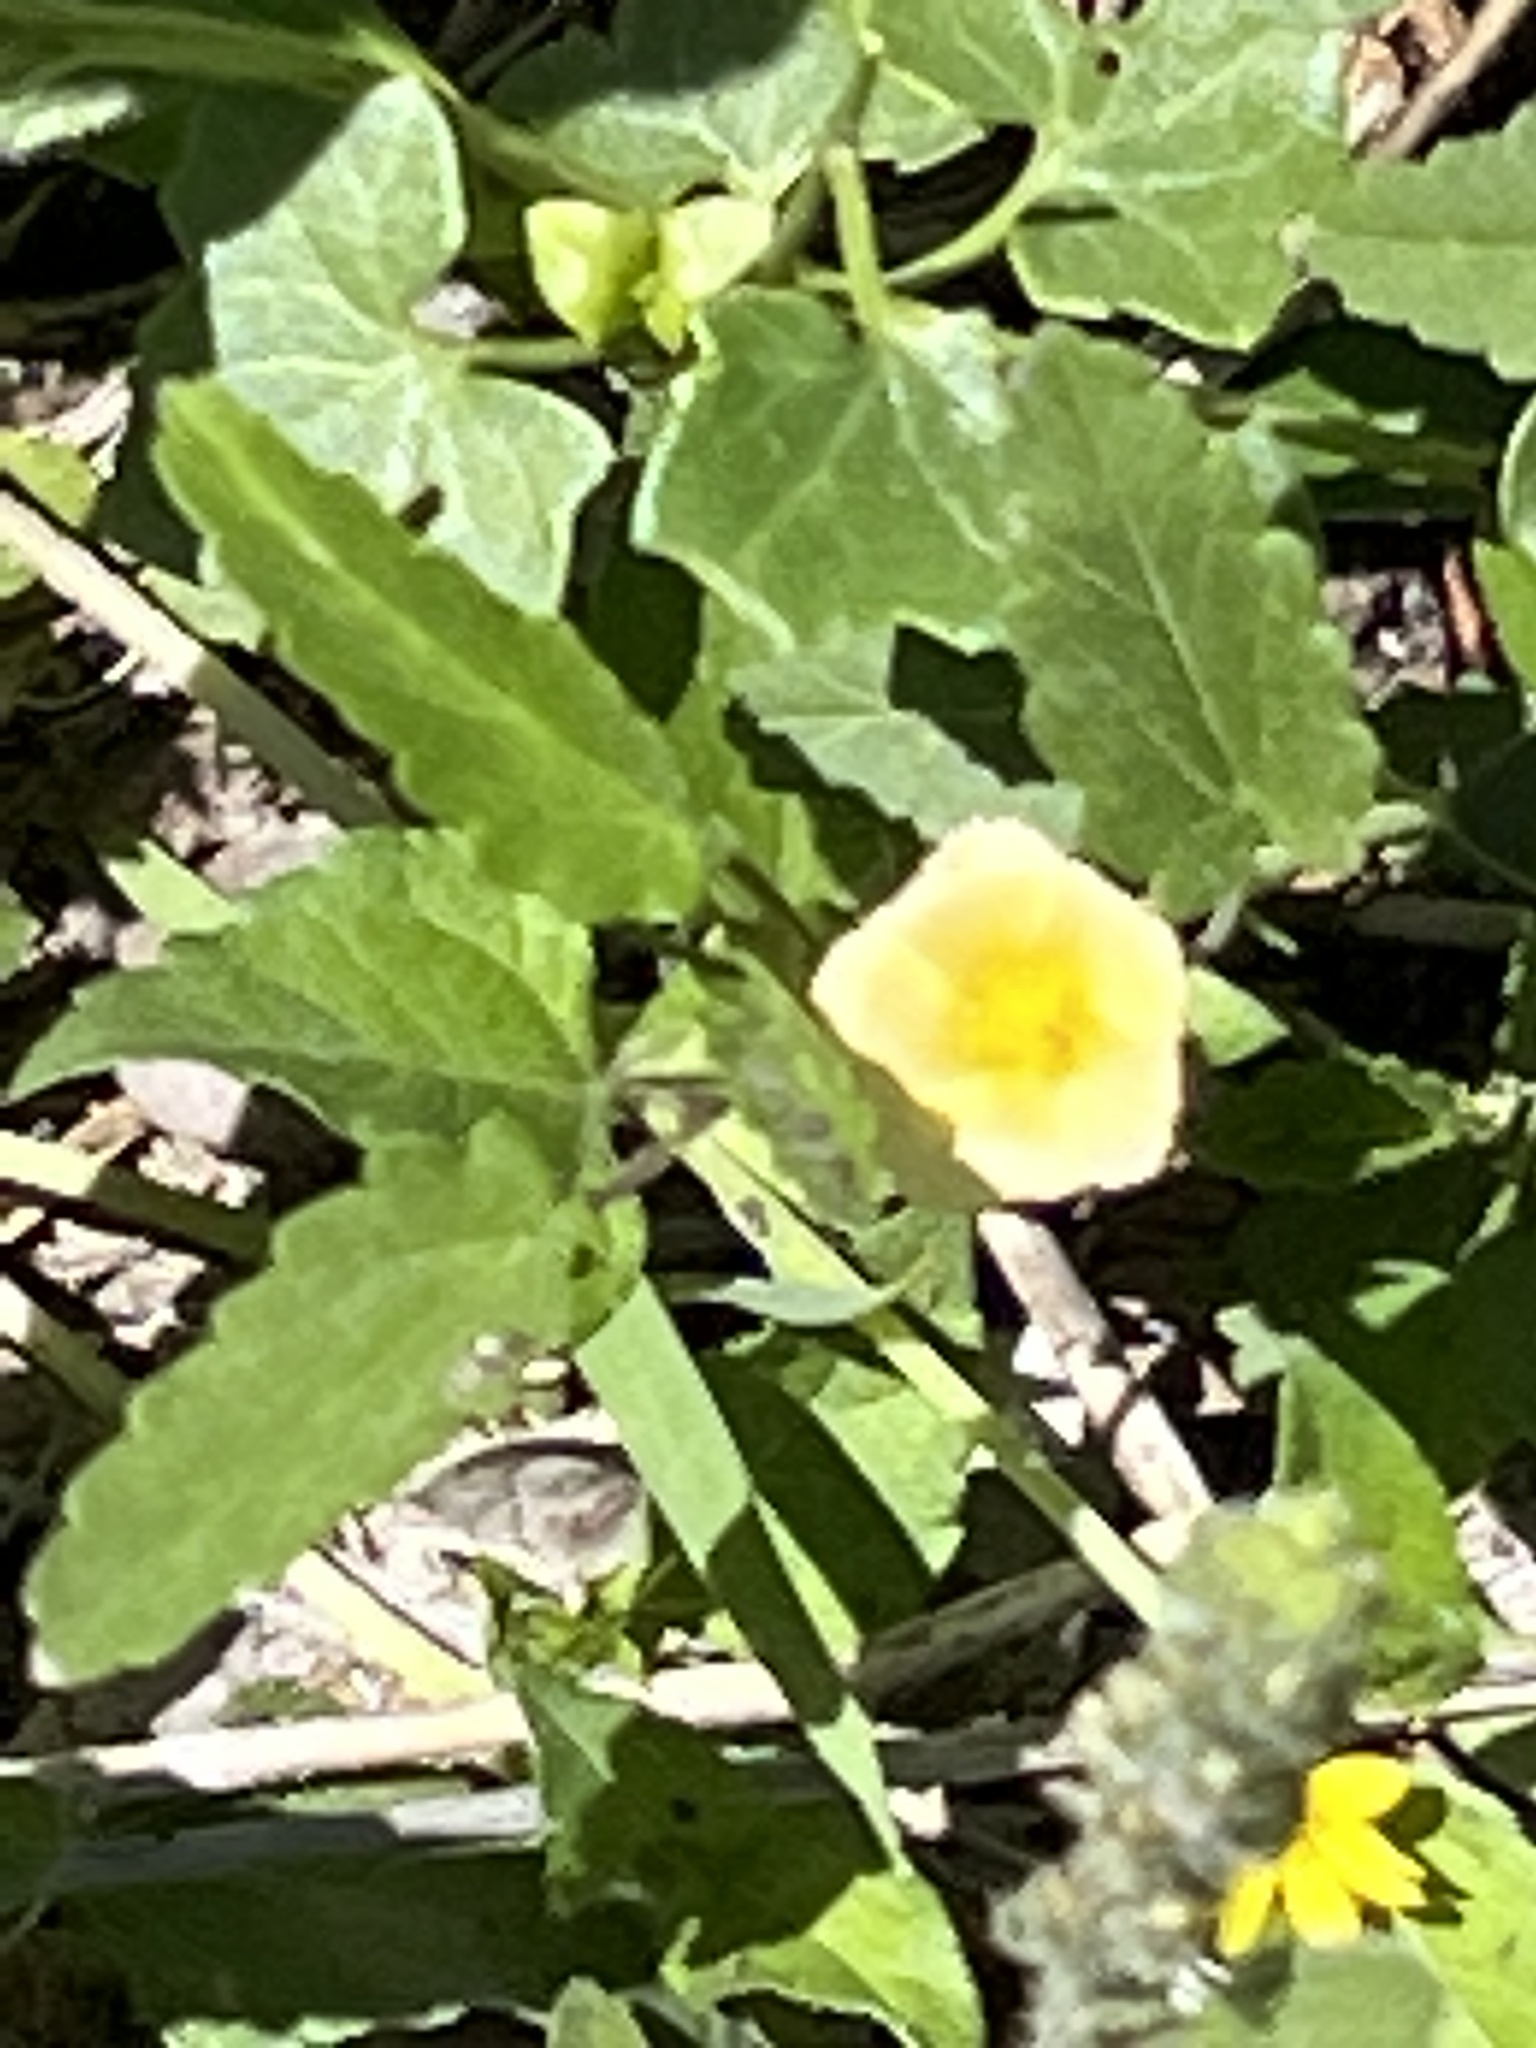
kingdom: Plantae
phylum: Tracheophyta
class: Magnoliopsida
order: Malvales
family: Malvaceae
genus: Sida
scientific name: Sida abutilifolia
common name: Spreading fanpetals
